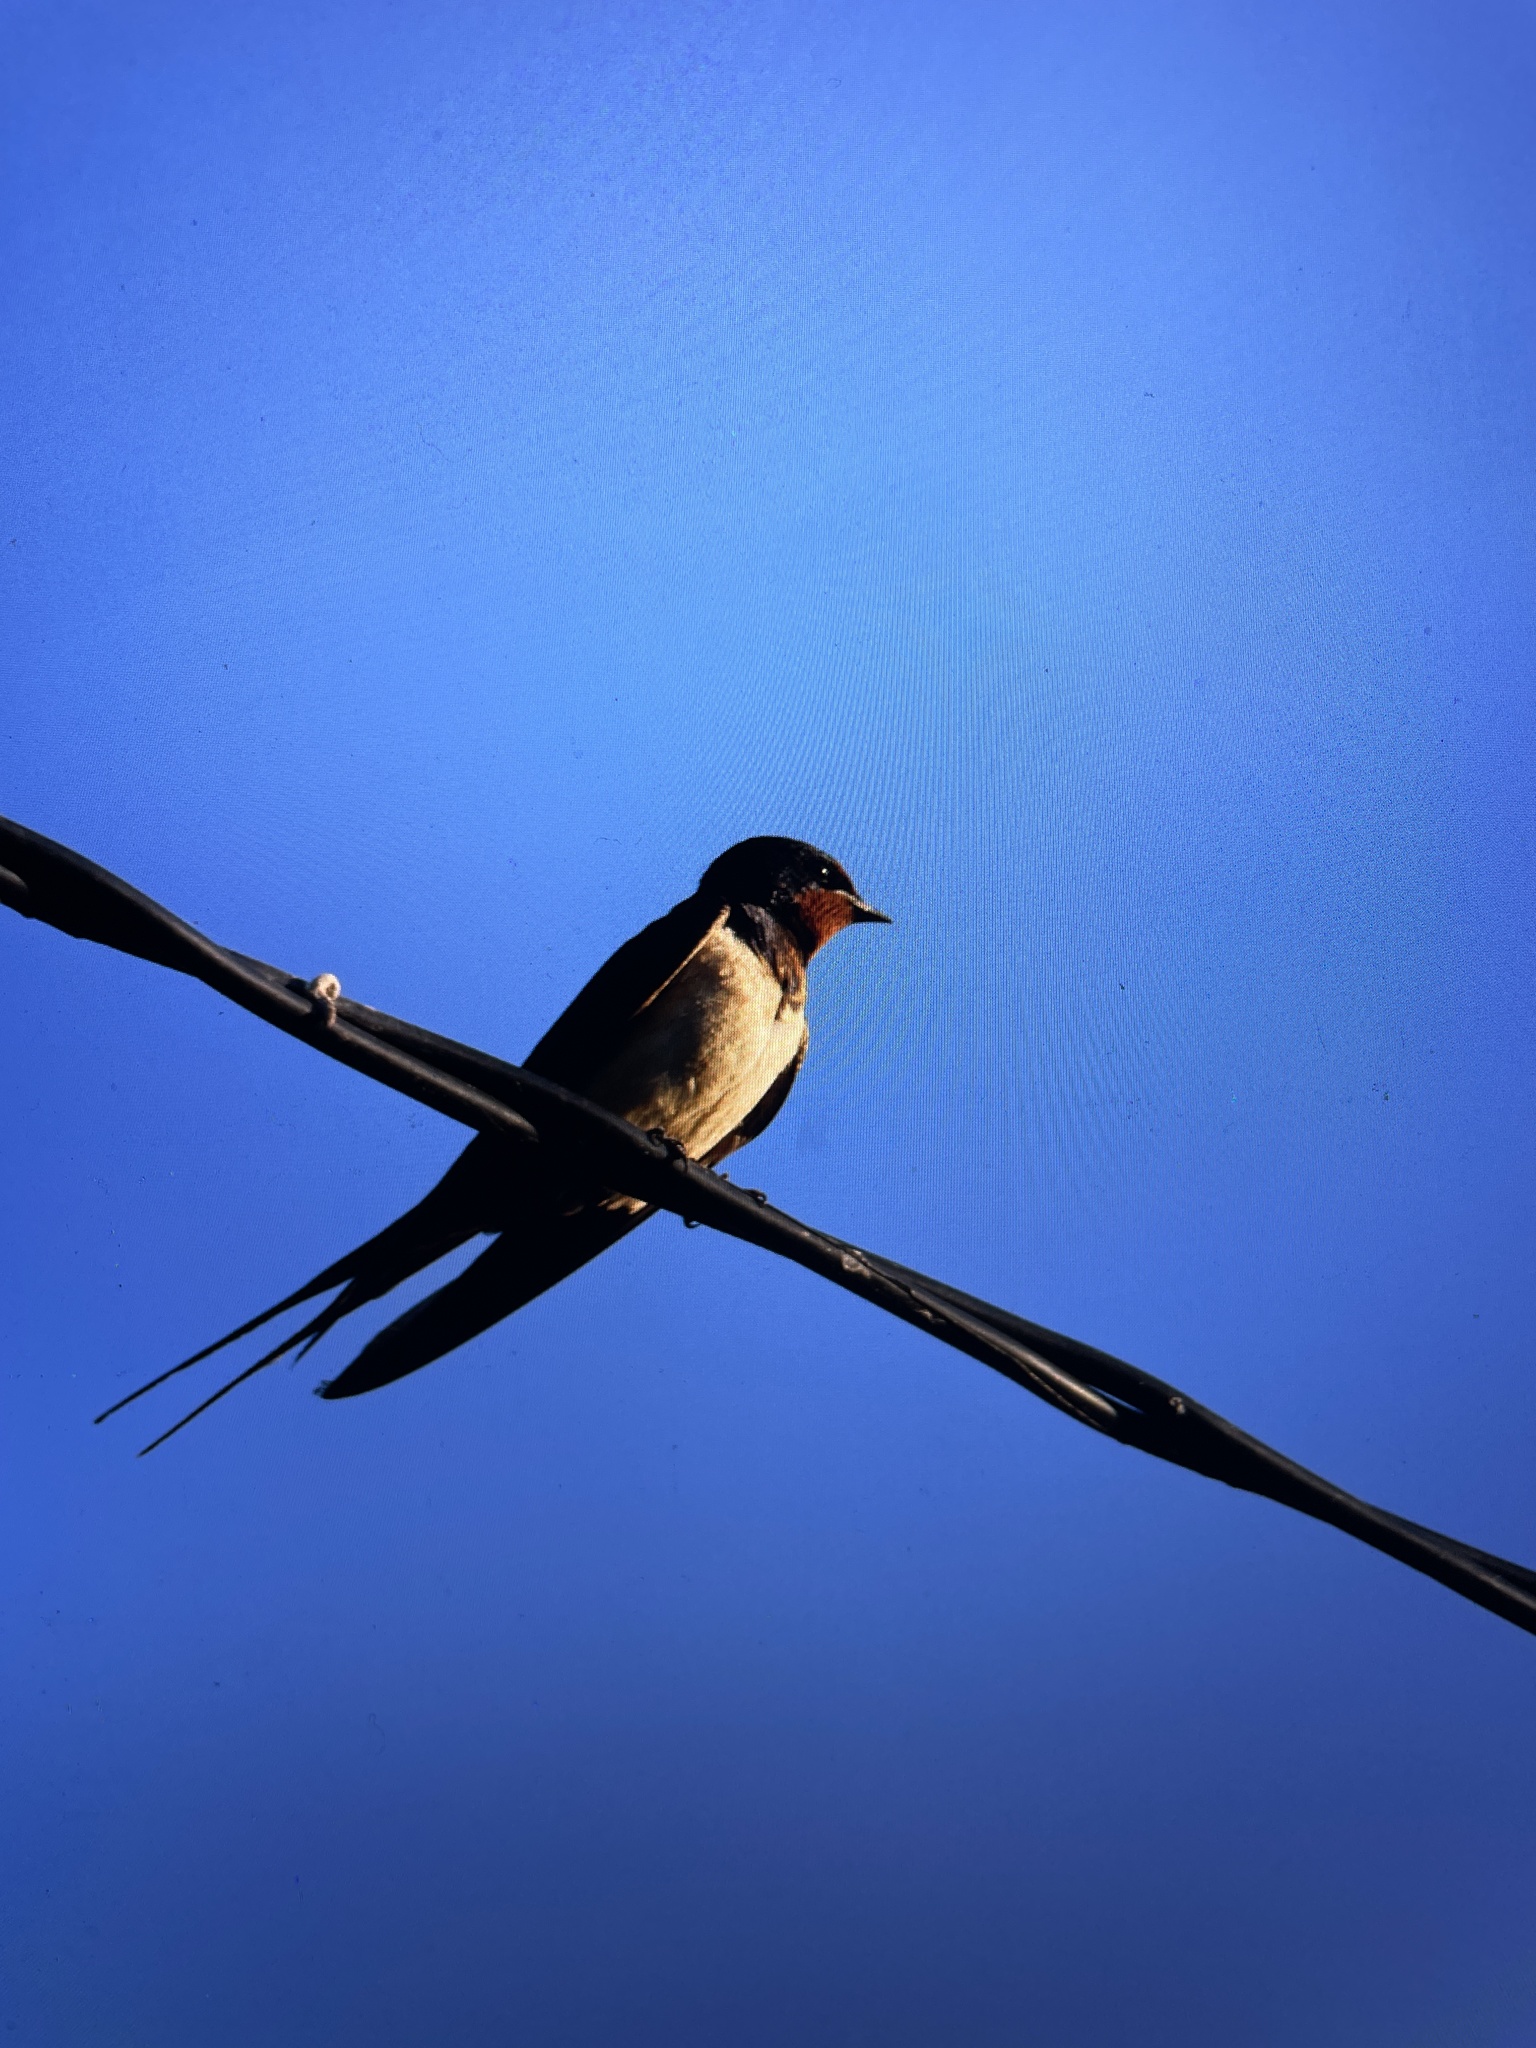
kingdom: Animalia
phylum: Chordata
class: Aves
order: Passeriformes
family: Hirundinidae
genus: Hirundo
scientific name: Hirundo rustica
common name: Barn swallow
